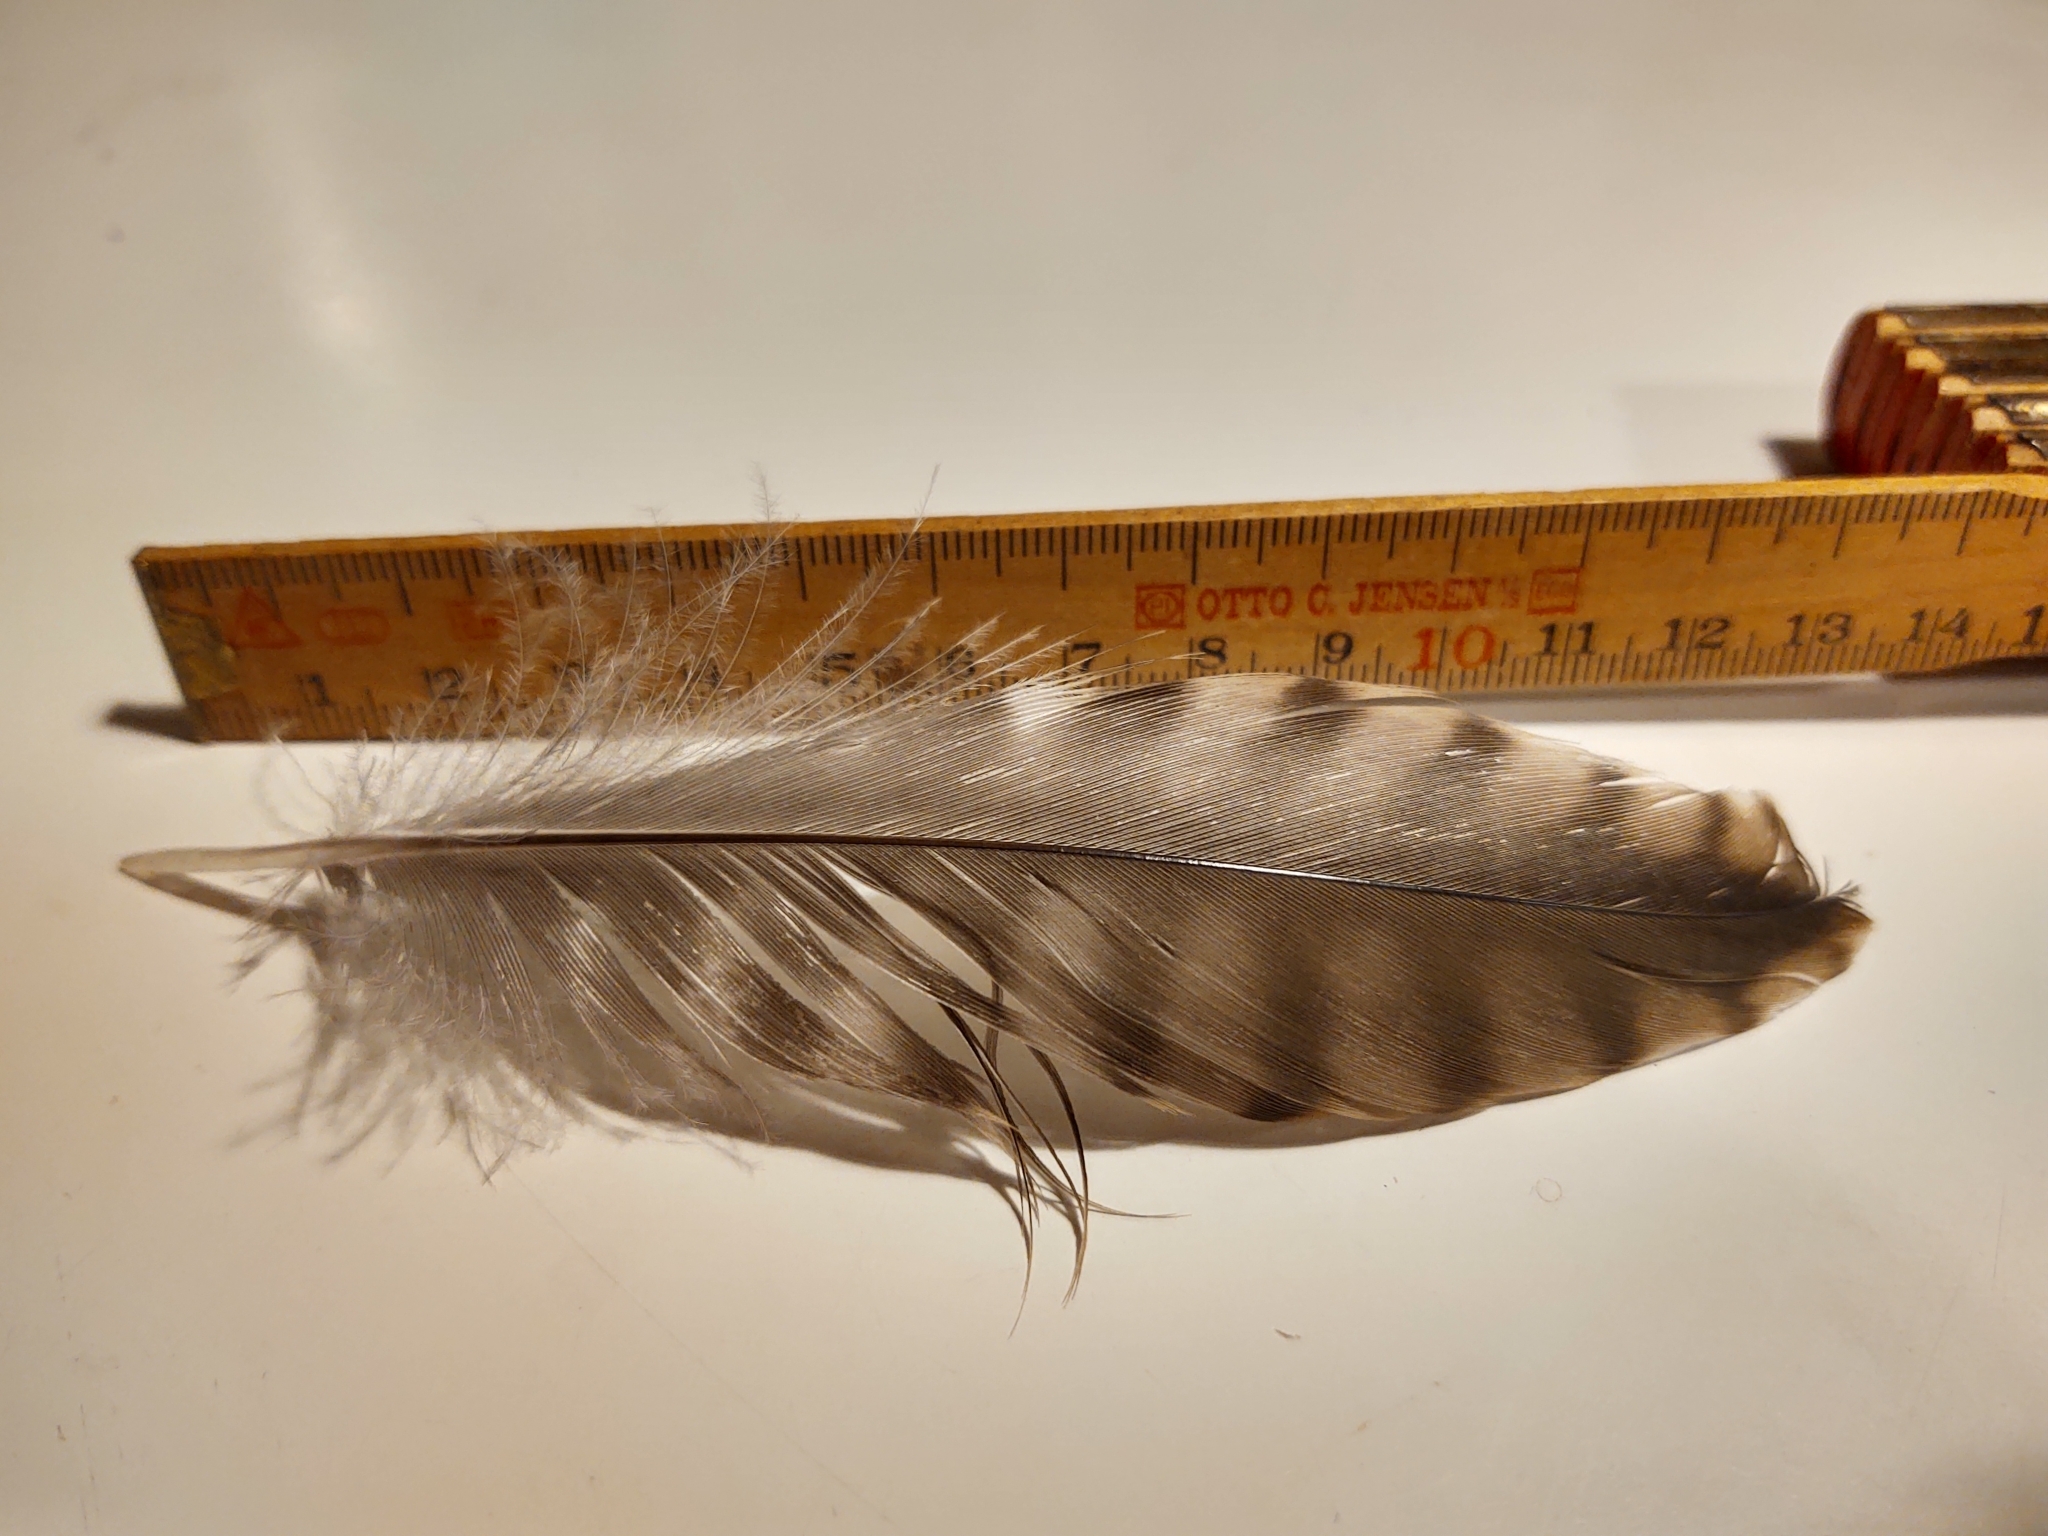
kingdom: Animalia
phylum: Chordata
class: Aves
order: Charadriiformes
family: Scolopacidae
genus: Numenius
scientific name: Numenius arquata
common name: Eurasian curlew
